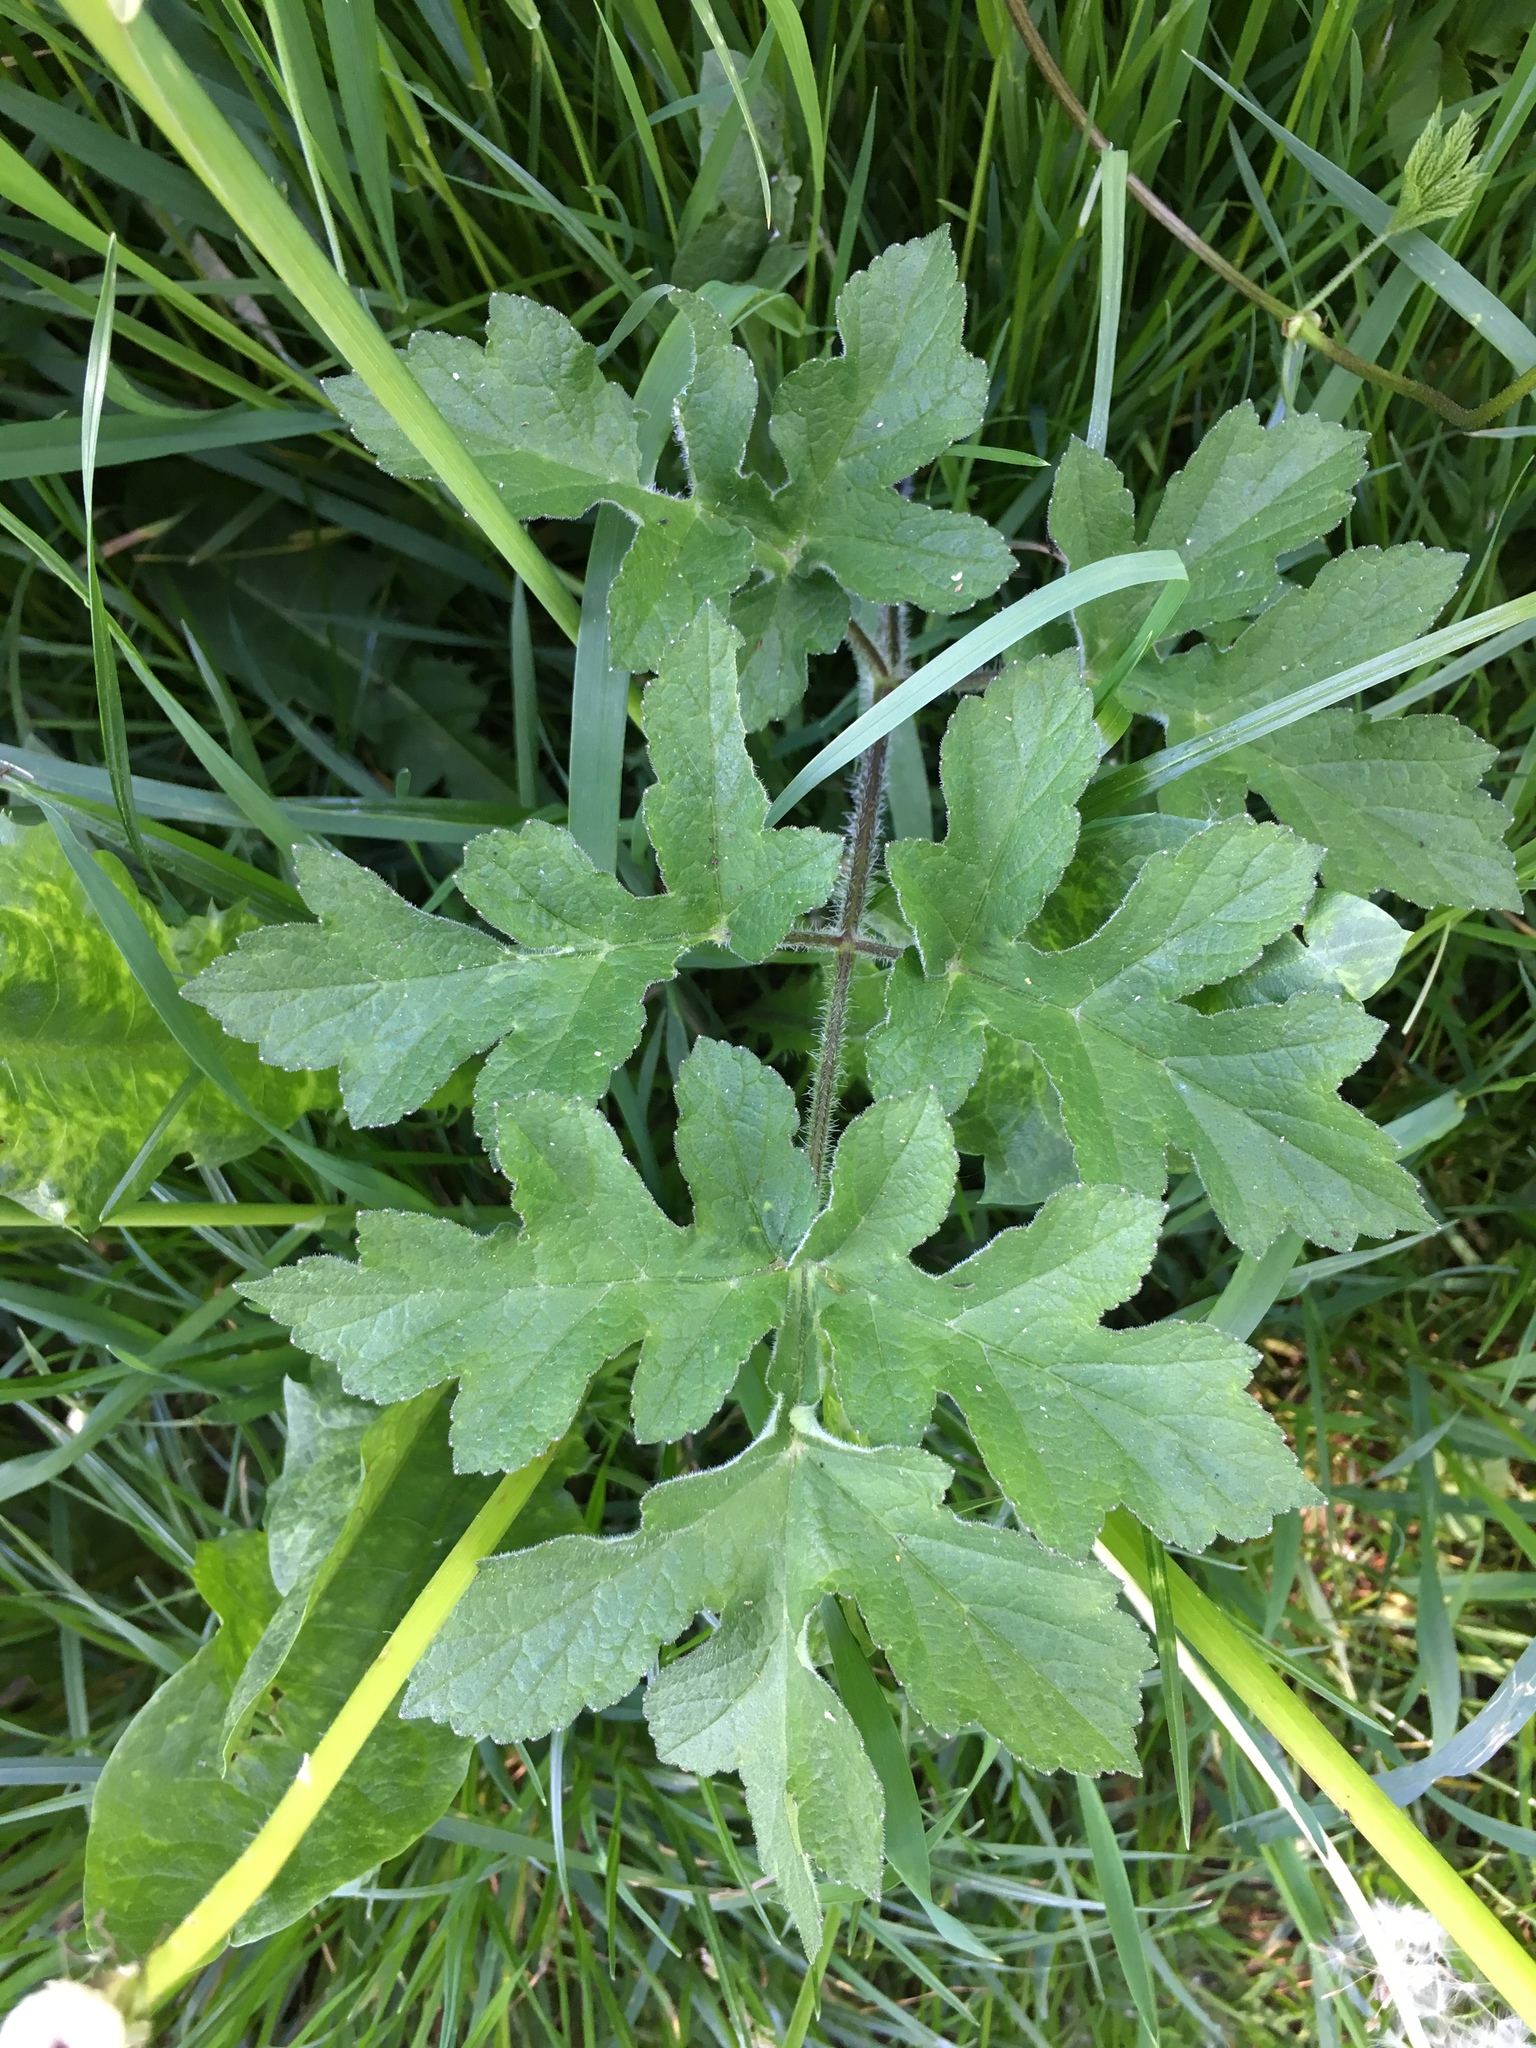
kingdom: Plantae
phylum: Tracheophyta
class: Magnoliopsida
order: Apiales
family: Apiaceae
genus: Heracleum
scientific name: Heracleum sphondylium
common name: Hogweed
